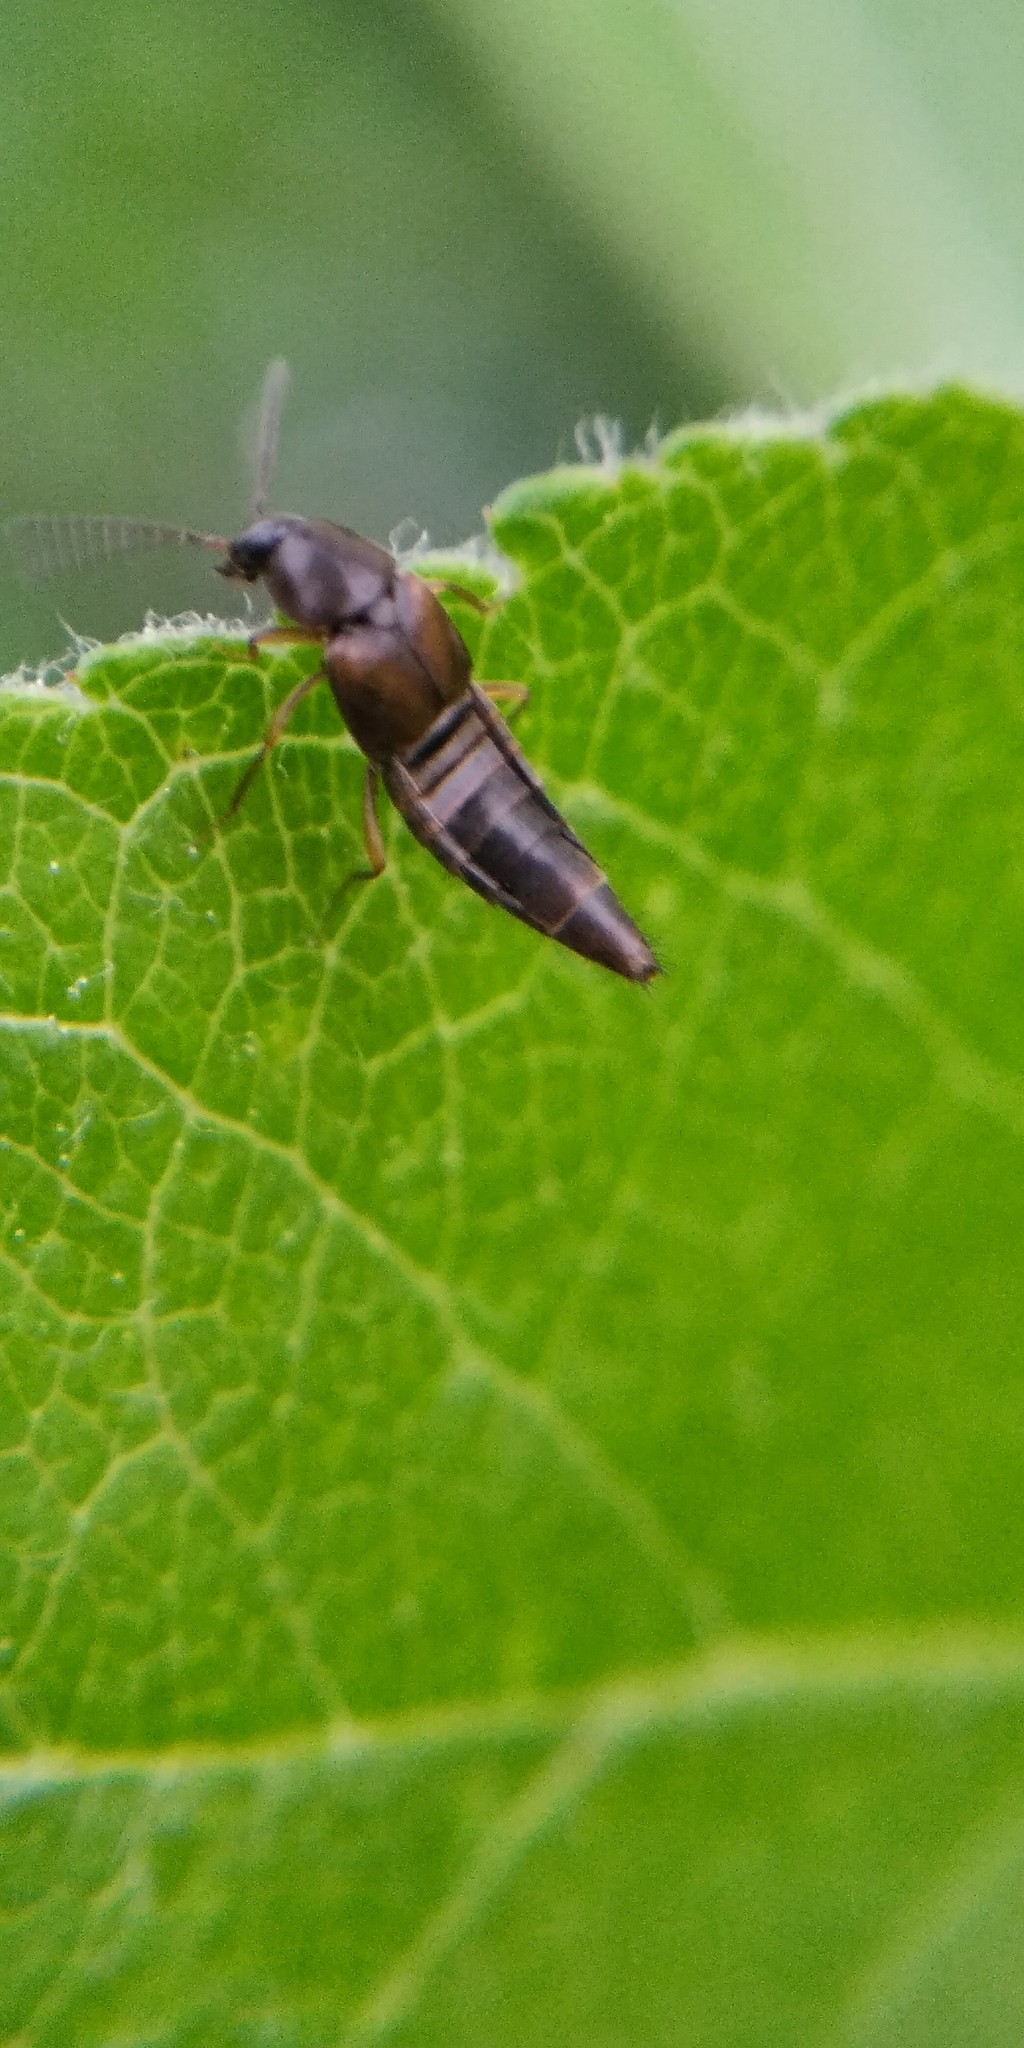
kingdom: Animalia
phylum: Arthropoda
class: Insecta
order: Coleoptera
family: Staphylinidae
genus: Oxypoda
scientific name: Oxypoda acuminata
